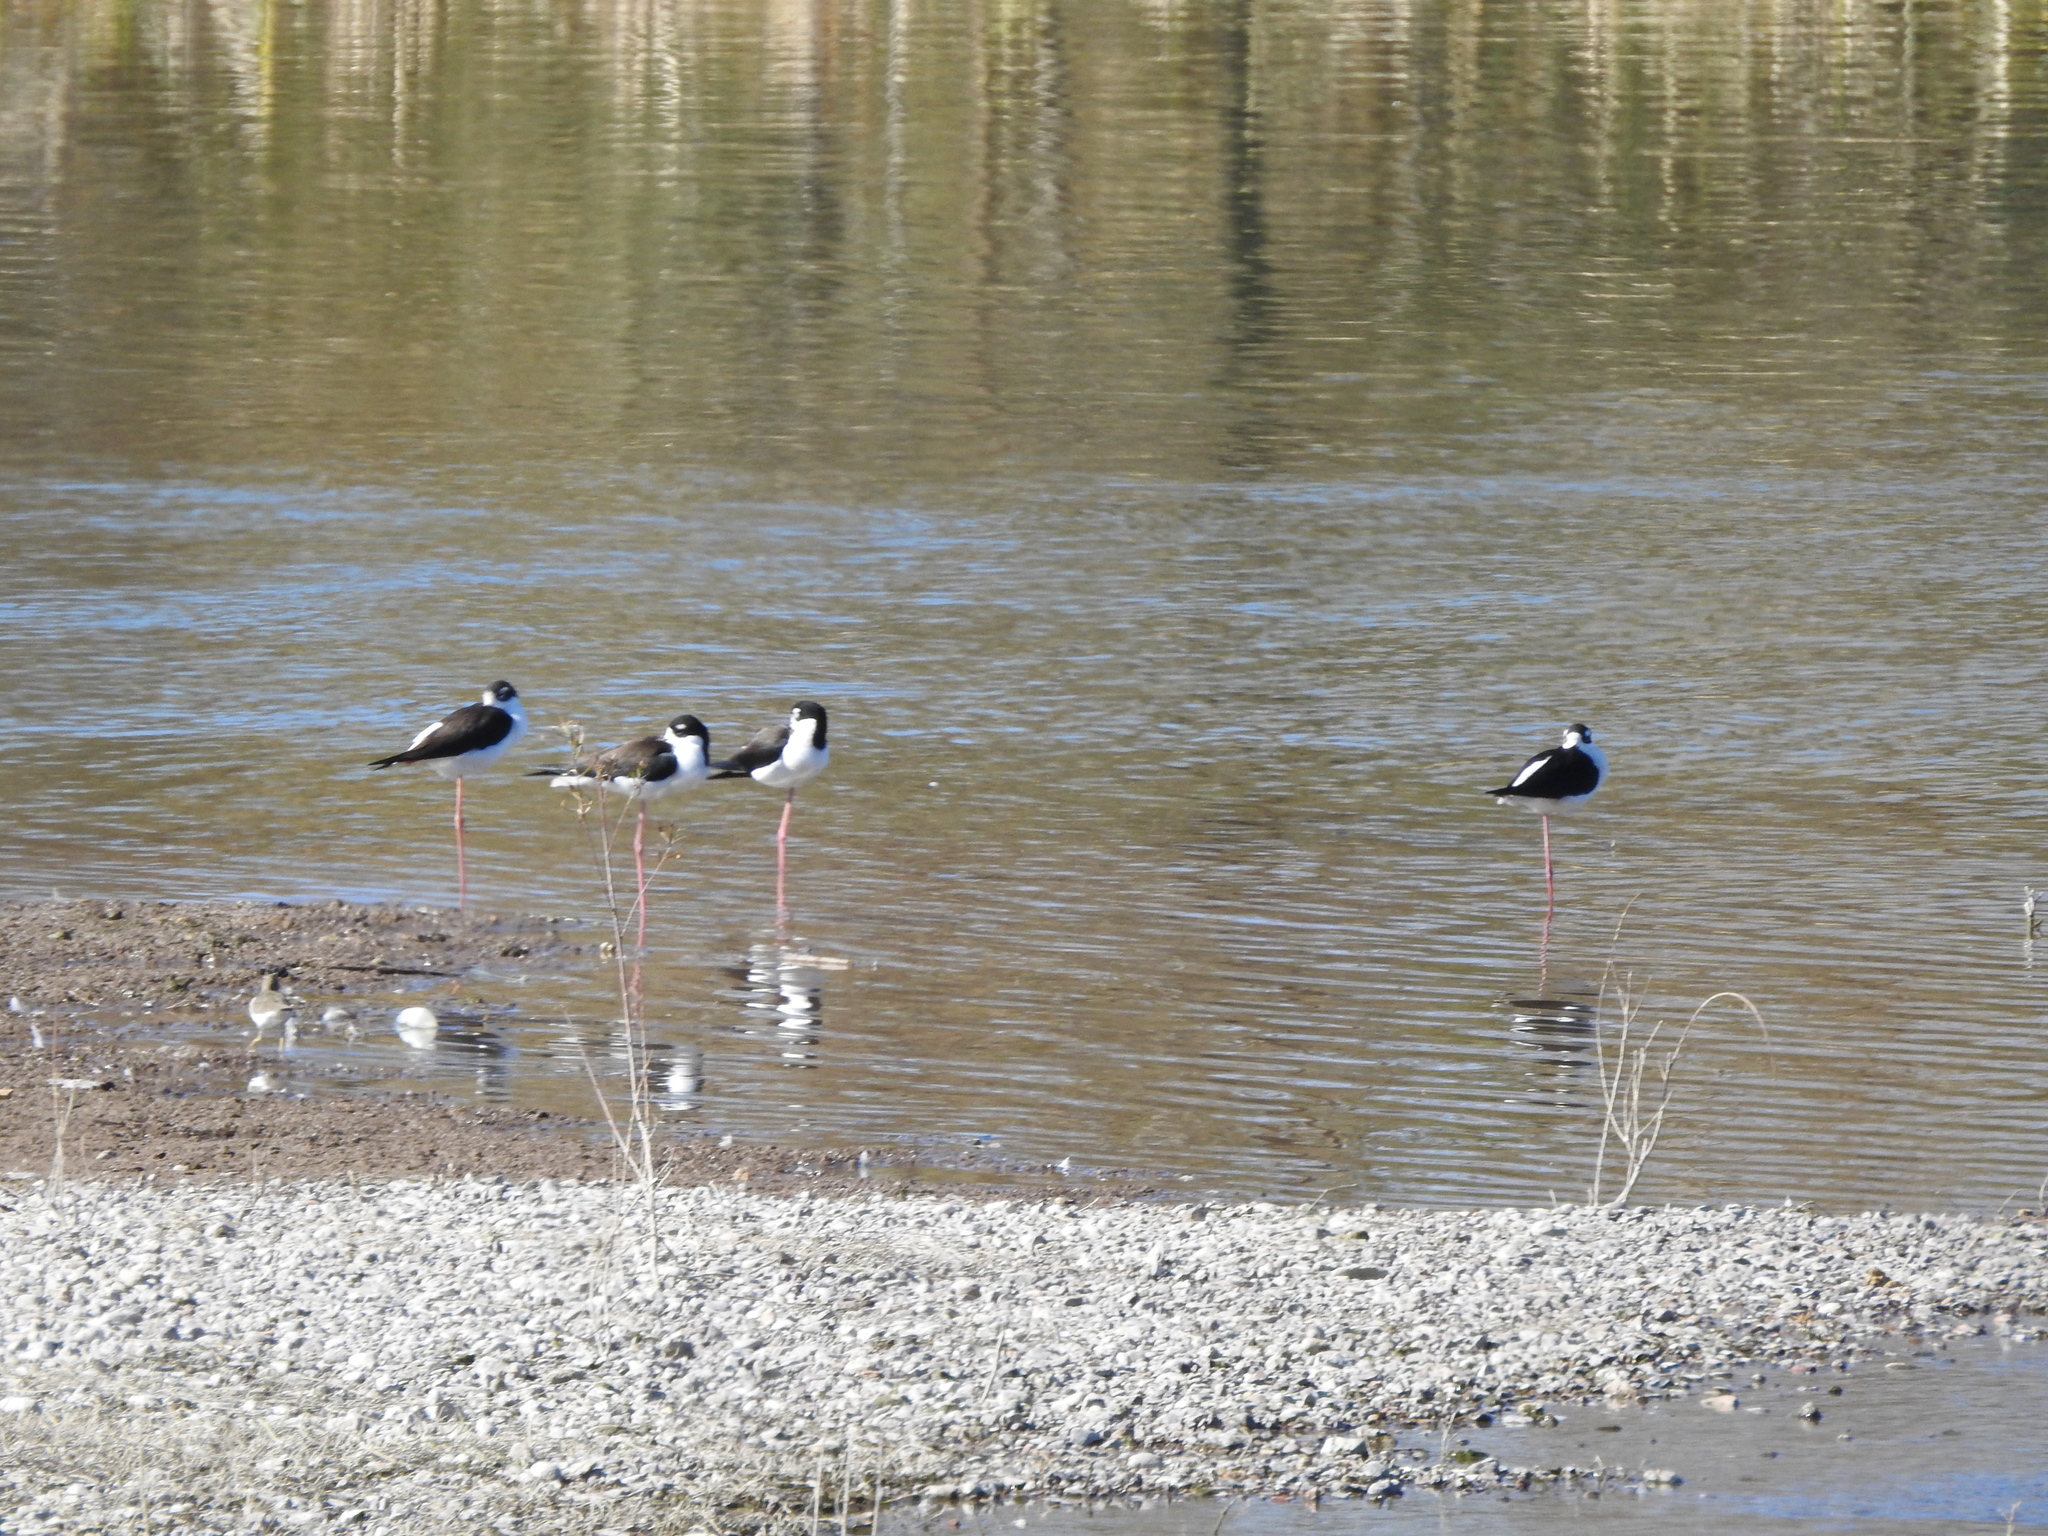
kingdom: Animalia
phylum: Chordata
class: Aves
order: Charadriiformes
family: Recurvirostridae
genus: Himantopus
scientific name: Himantopus mexicanus
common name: Black-necked stilt
